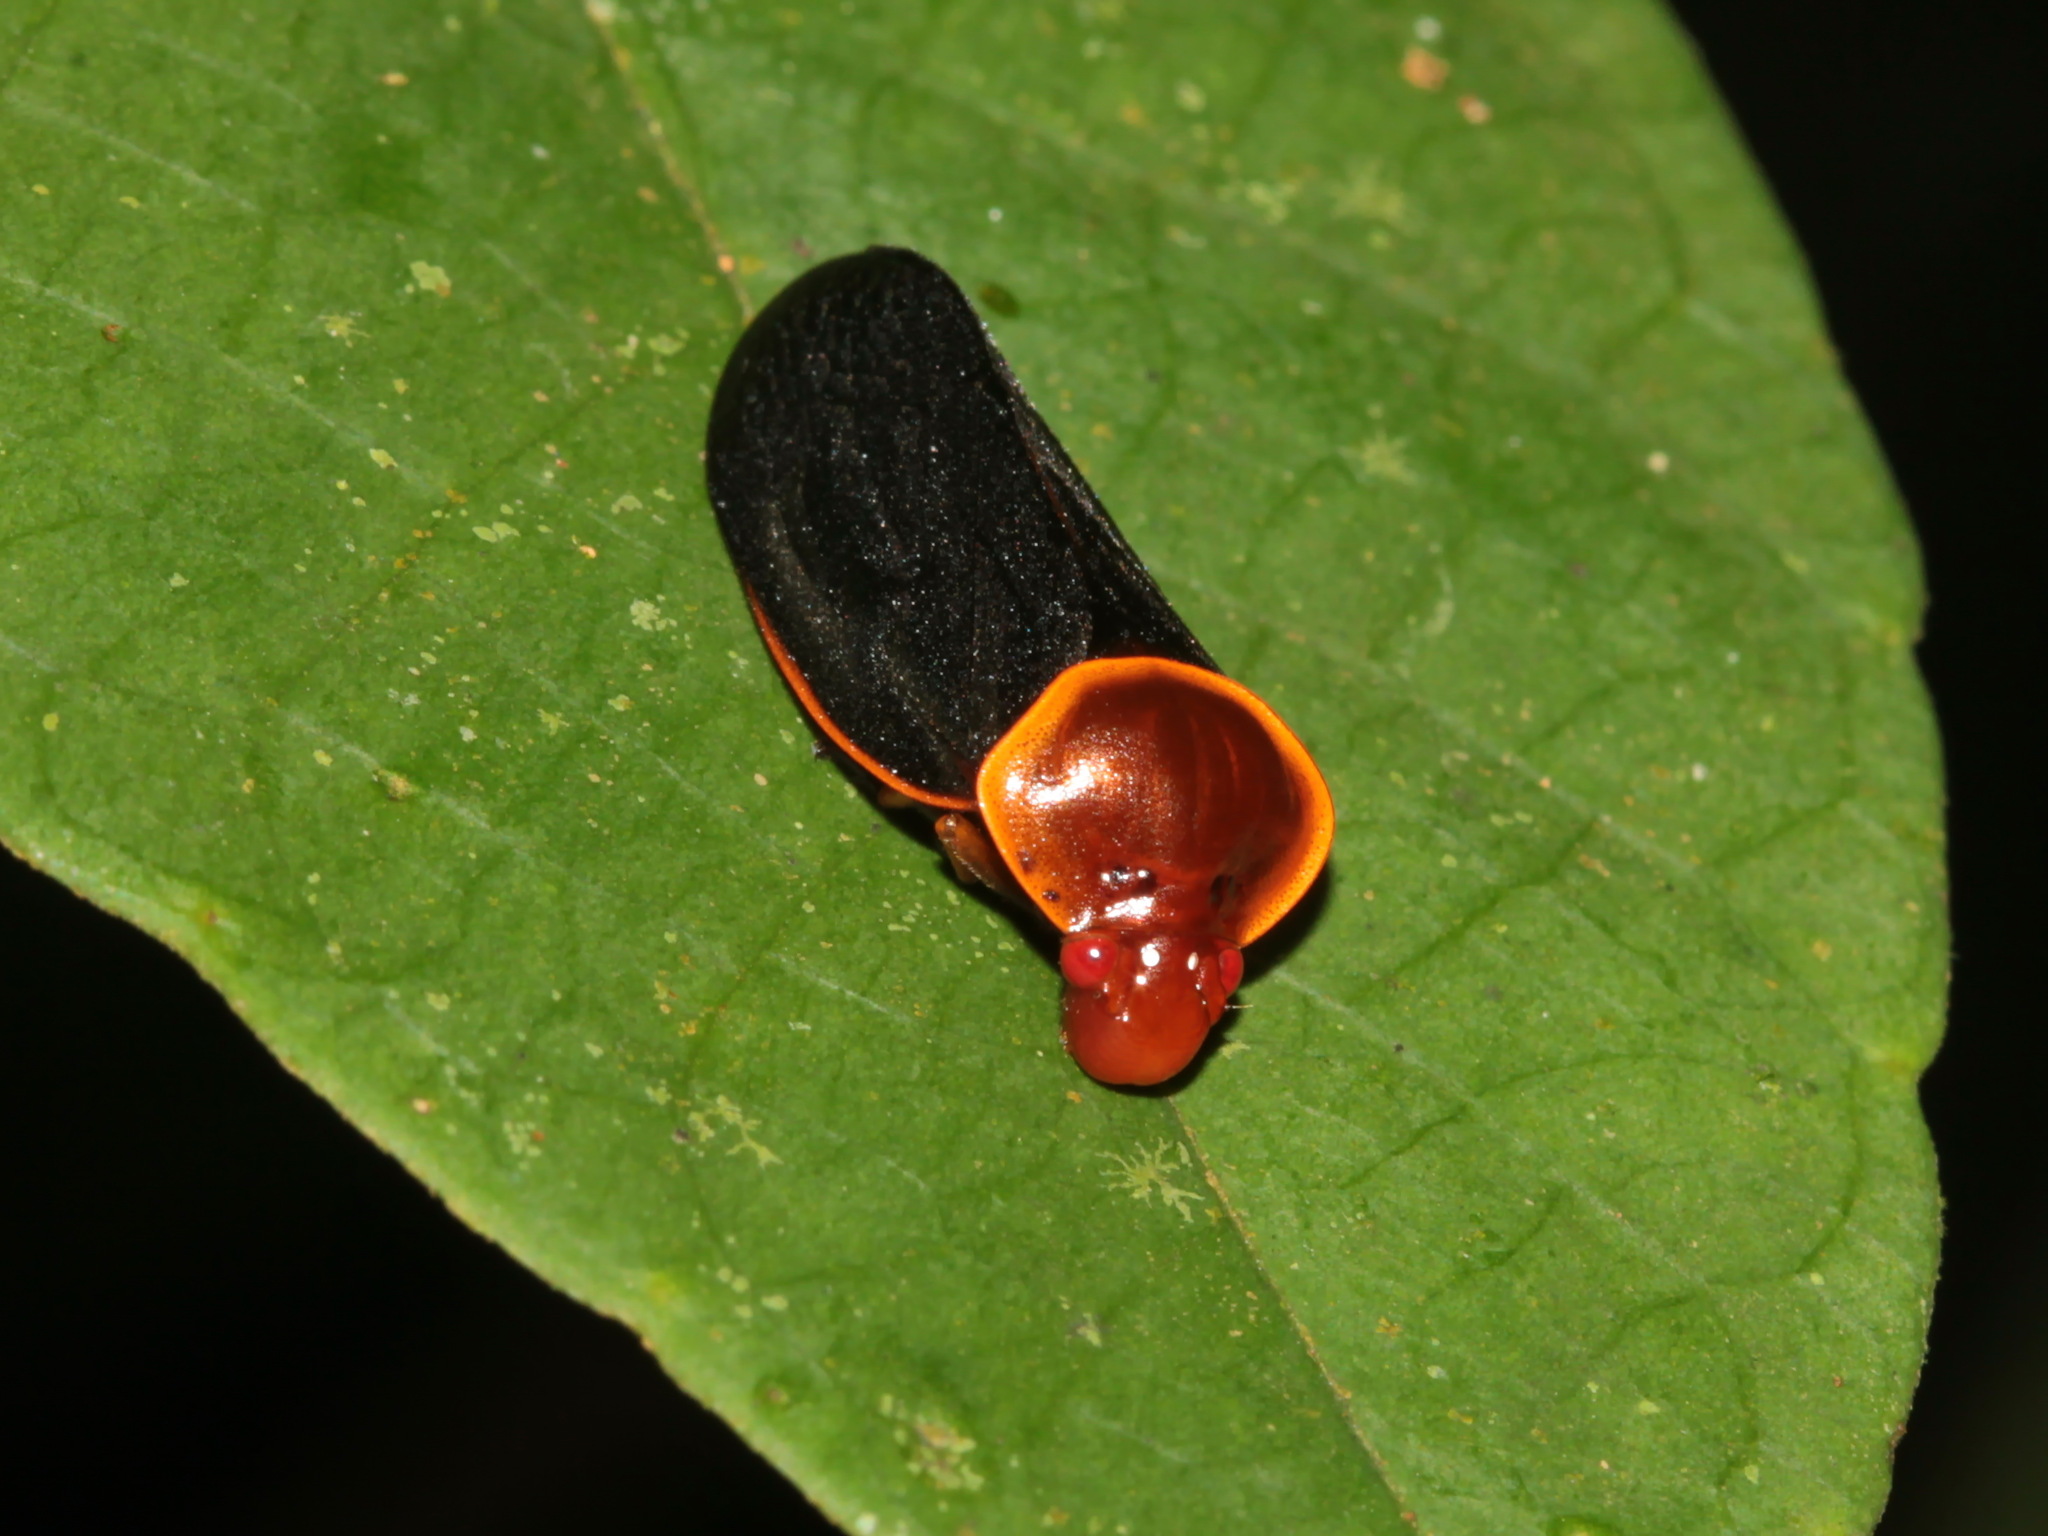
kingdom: Animalia
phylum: Arthropoda
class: Insecta
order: Hemiptera
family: Cercopidae
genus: Leptataspis
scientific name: Leptataspis fuscipennis
